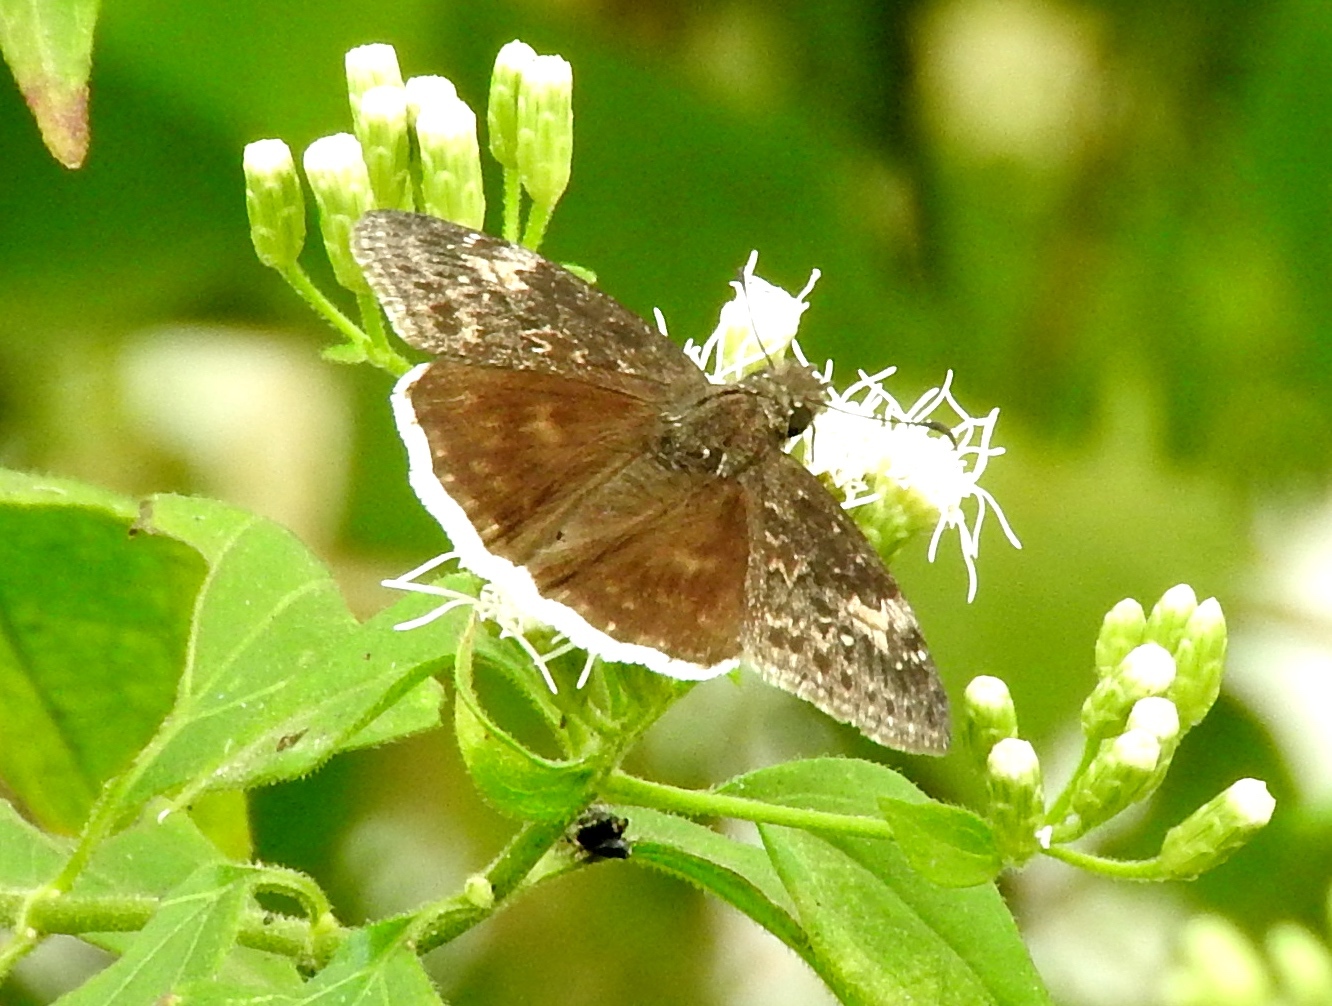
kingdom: Animalia
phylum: Arthropoda
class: Insecta
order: Lepidoptera
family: Hesperiidae
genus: Erynnis
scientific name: Erynnis funeralis
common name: Funereal duskywing
